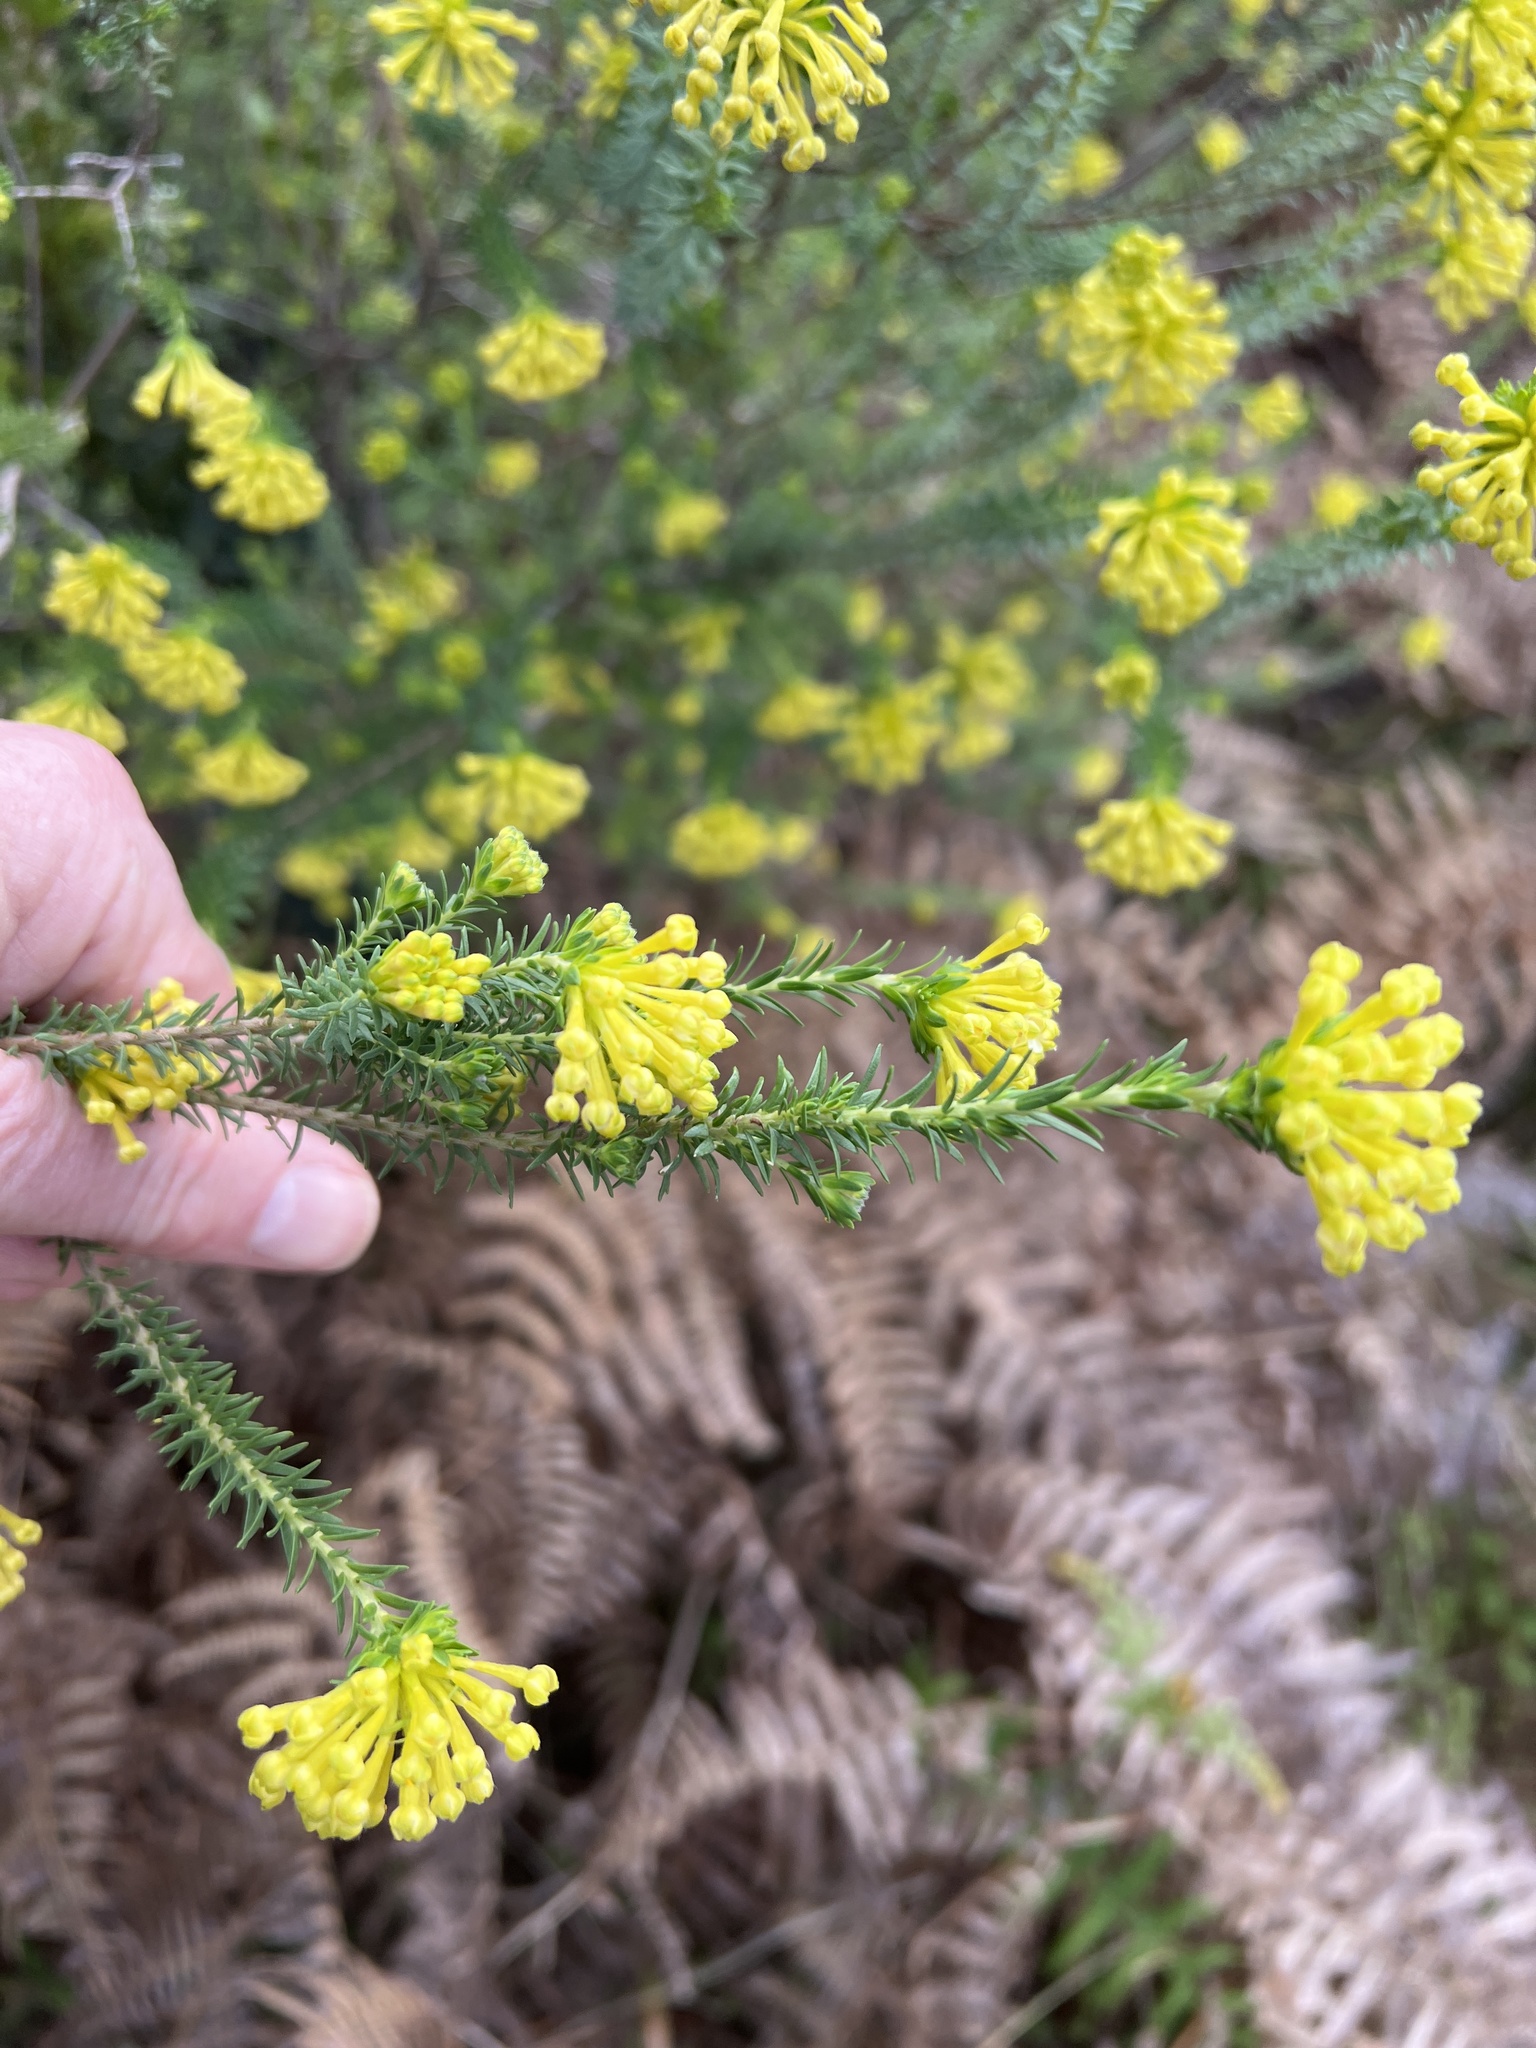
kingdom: Plantae
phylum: Tracheophyta
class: Magnoliopsida
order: Malvales
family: Thymelaeaceae
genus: Gnidia
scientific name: Gnidia squarrosa
